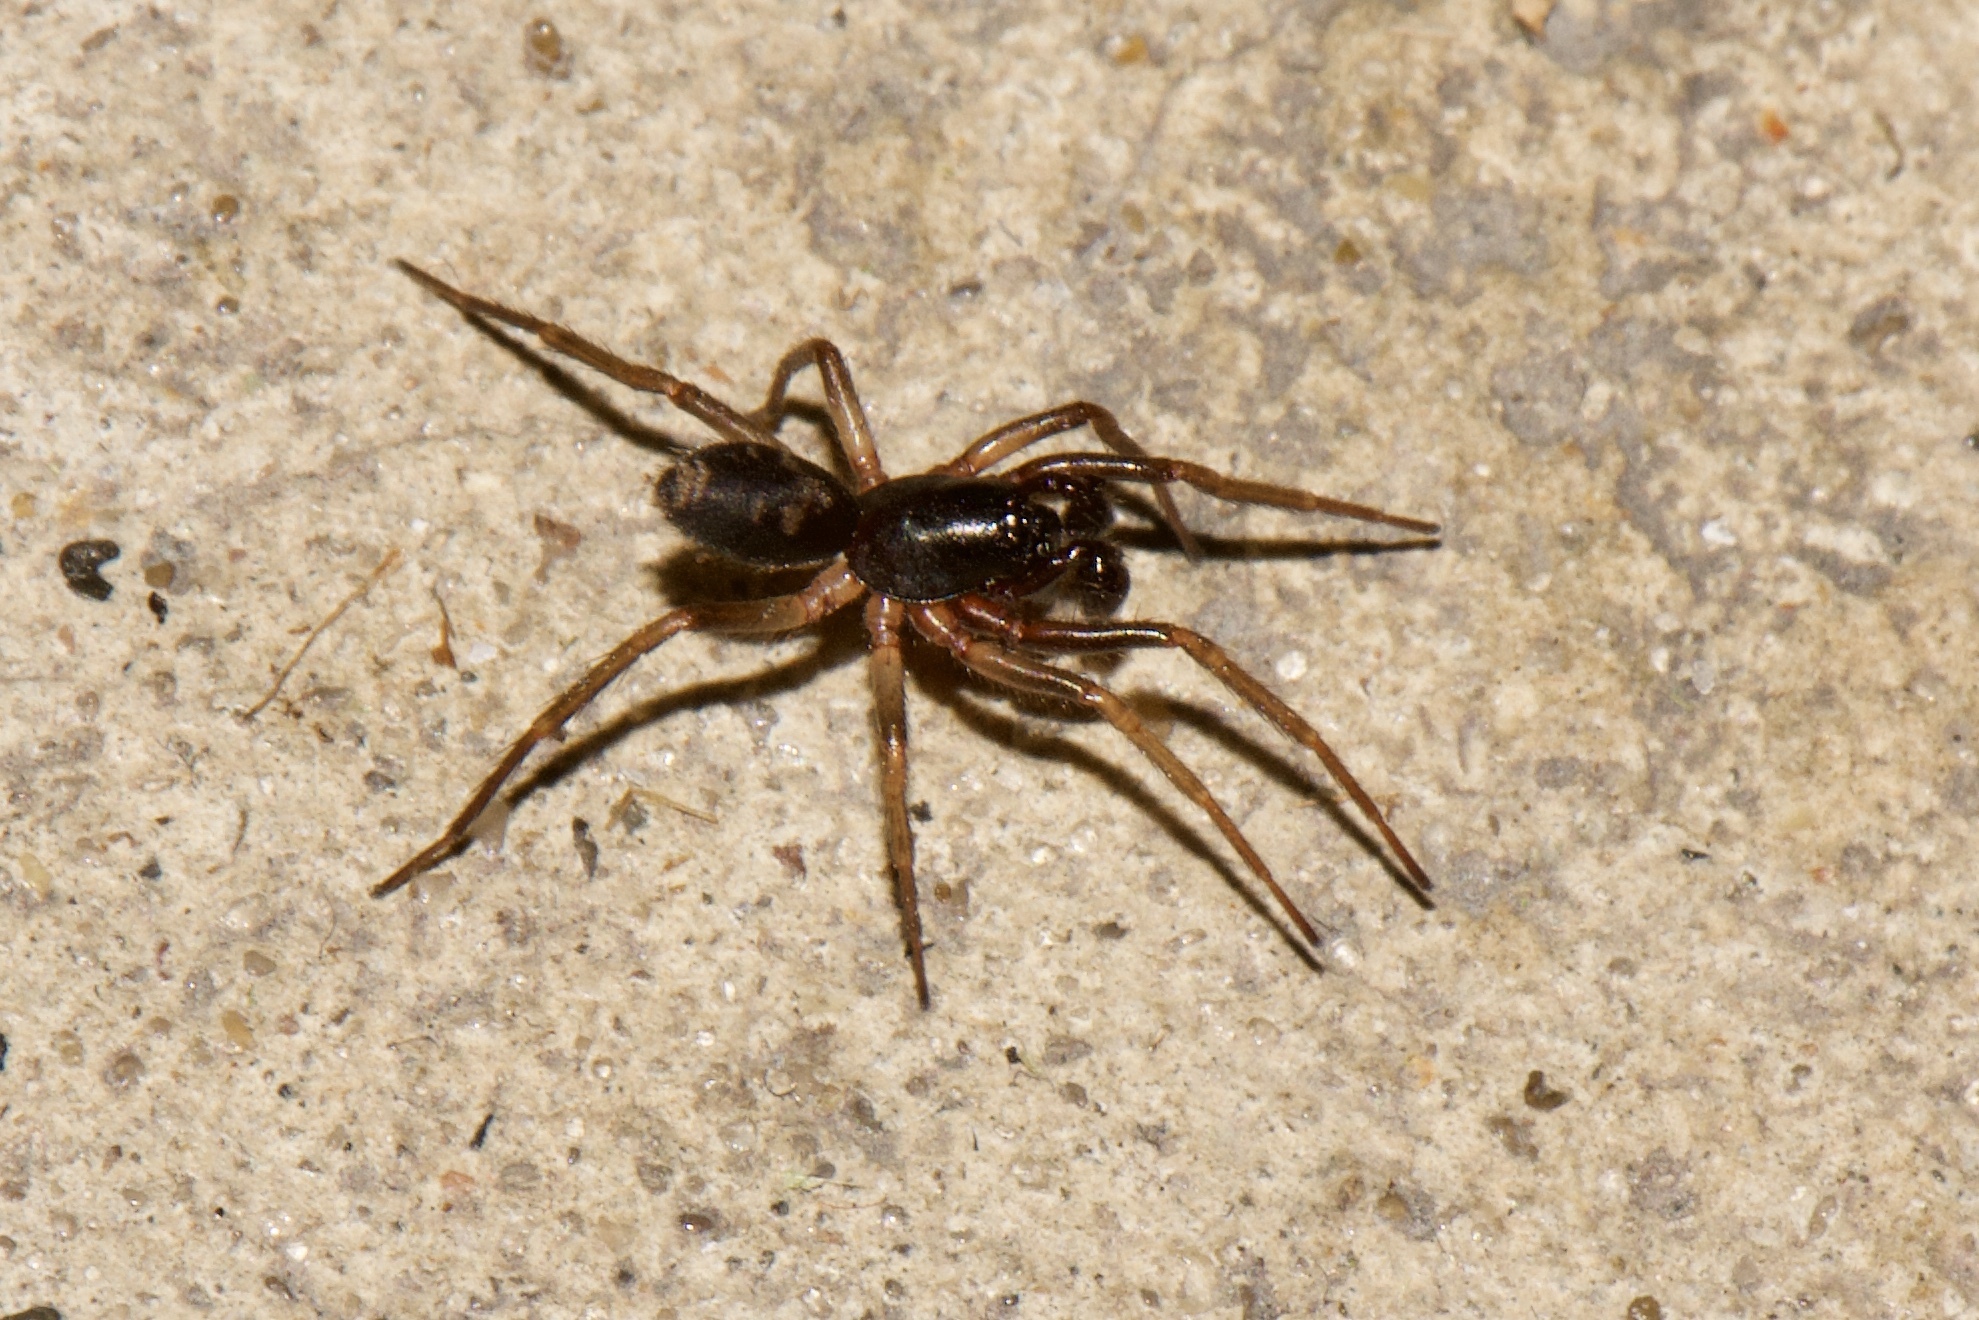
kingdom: Animalia
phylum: Arthropoda
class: Arachnida
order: Araneae
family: Corinnidae
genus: Falconina
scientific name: Falconina gracilis
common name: Antmimic spider
